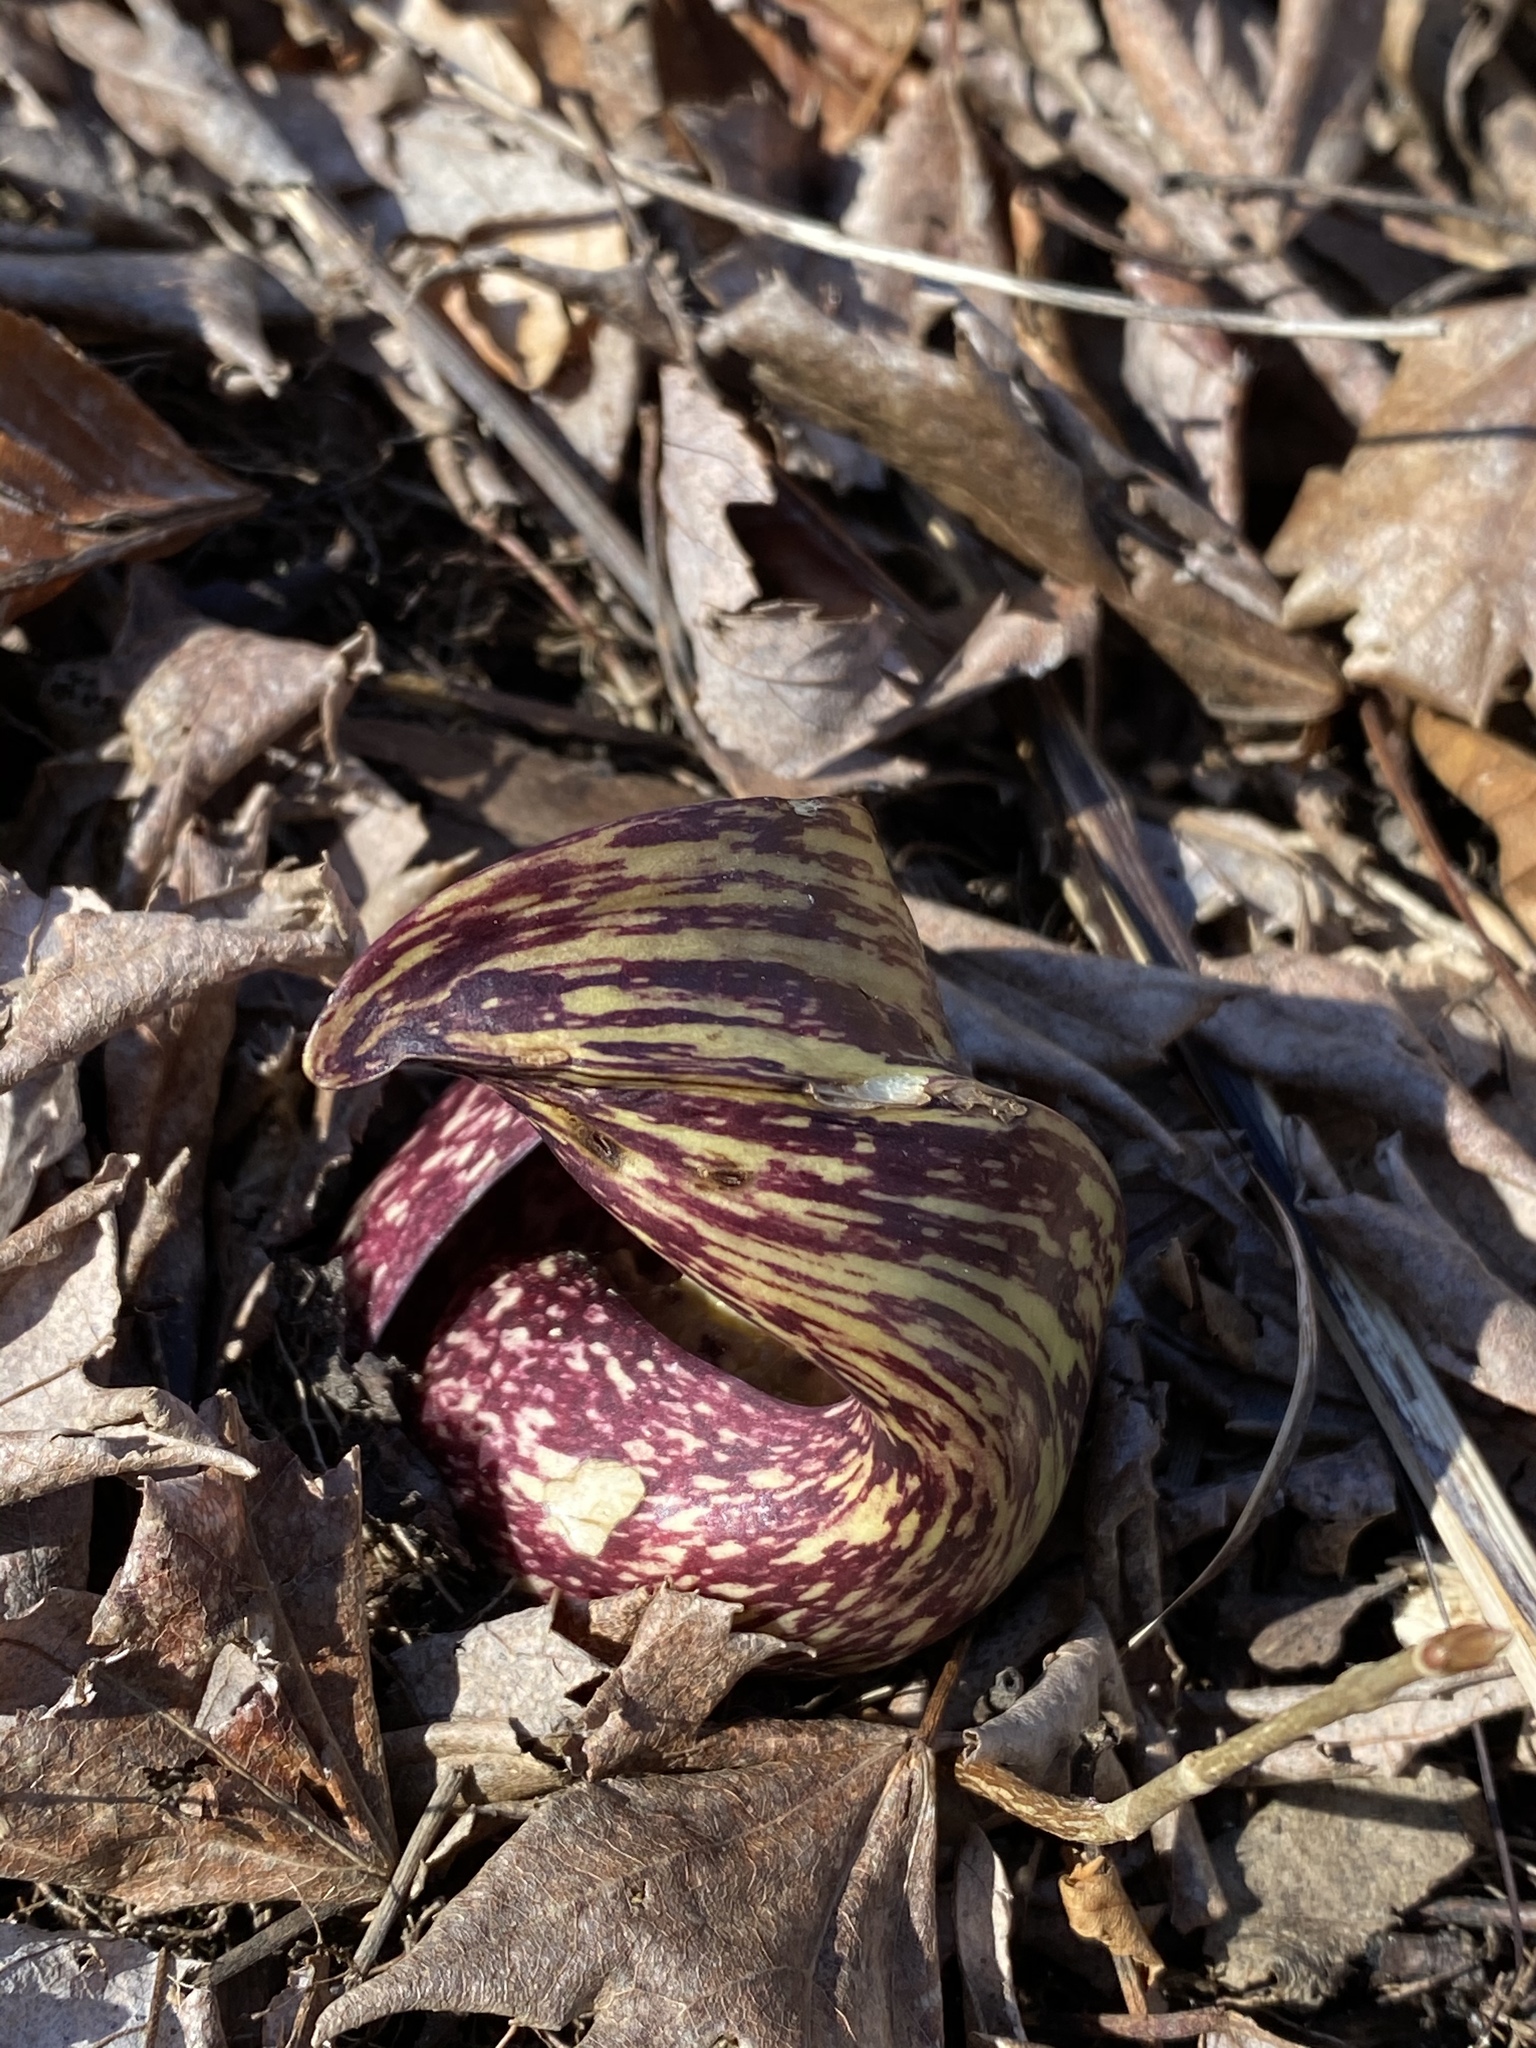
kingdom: Plantae
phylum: Tracheophyta
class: Liliopsida
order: Alismatales
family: Araceae
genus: Symplocarpus
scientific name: Symplocarpus foetidus
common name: Eastern skunk cabbage
